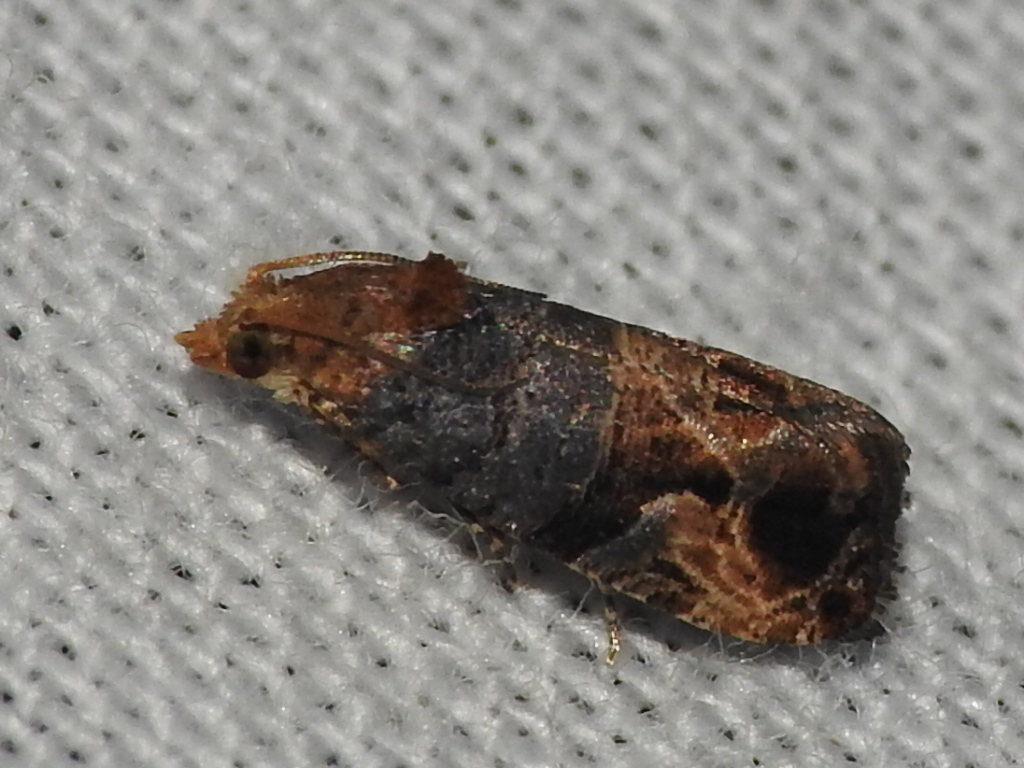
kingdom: Animalia
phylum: Arthropoda
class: Insecta
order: Lepidoptera
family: Tortricidae
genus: Paralobesia
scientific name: Paralobesia viteana
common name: Grape berry moth
